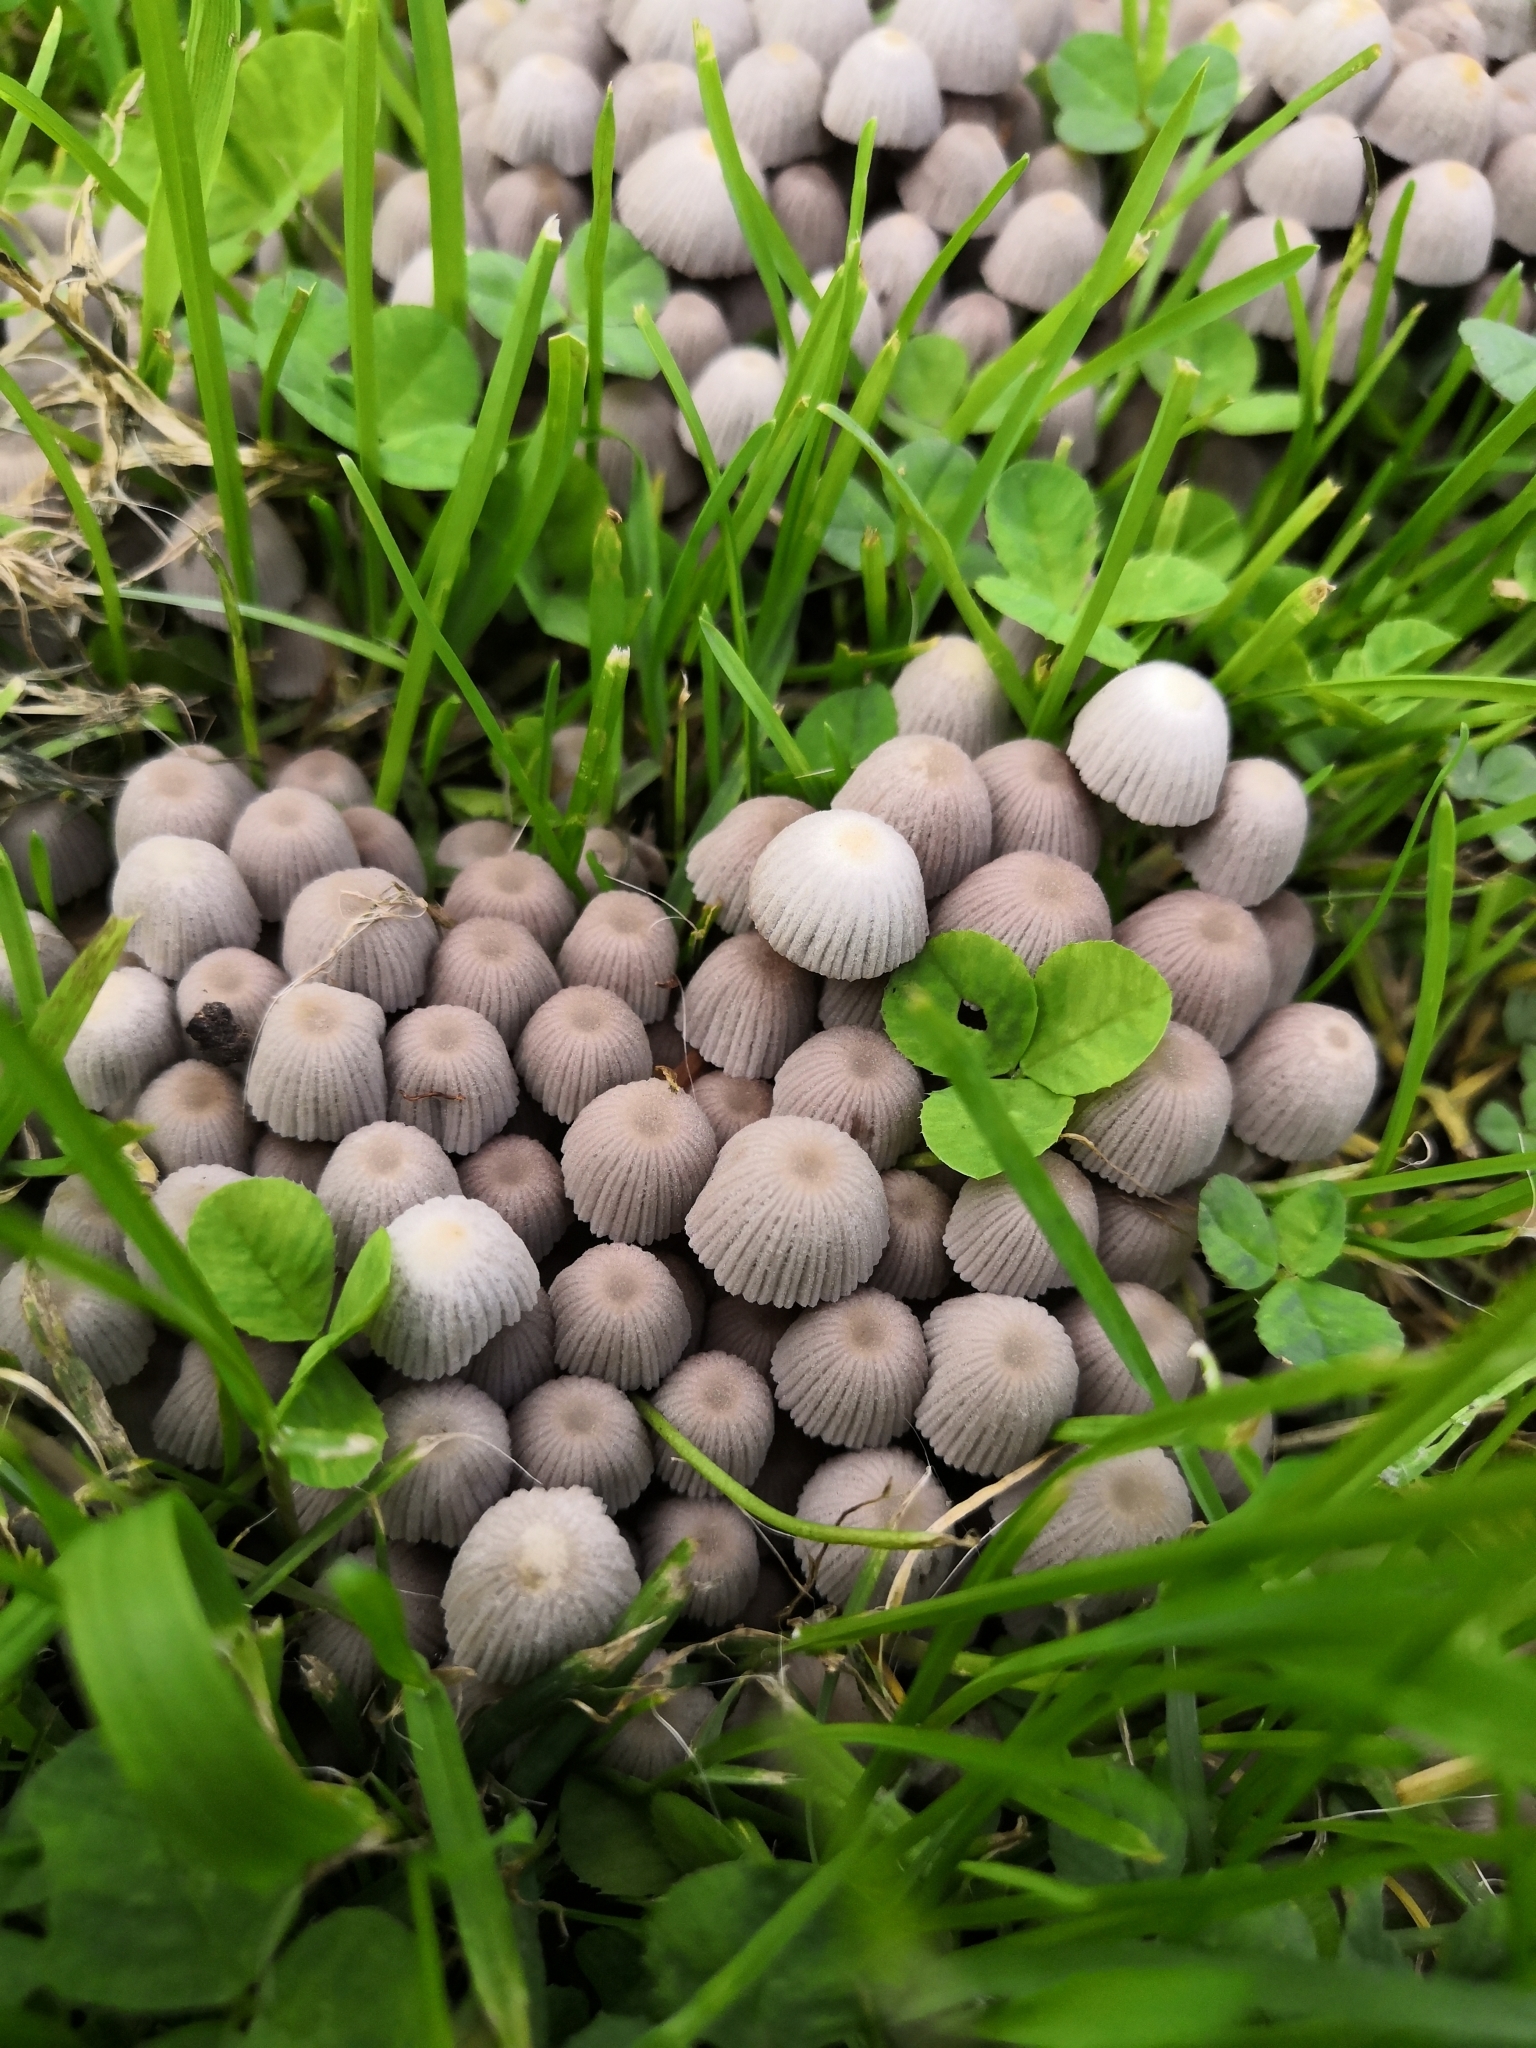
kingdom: Fungi
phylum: Basidiomycota
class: Agaricomycetes
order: Agaricales
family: Psathyrellaceae
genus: Coprinellus
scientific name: Coprinellus disseminatus
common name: Fairies' bonnets
